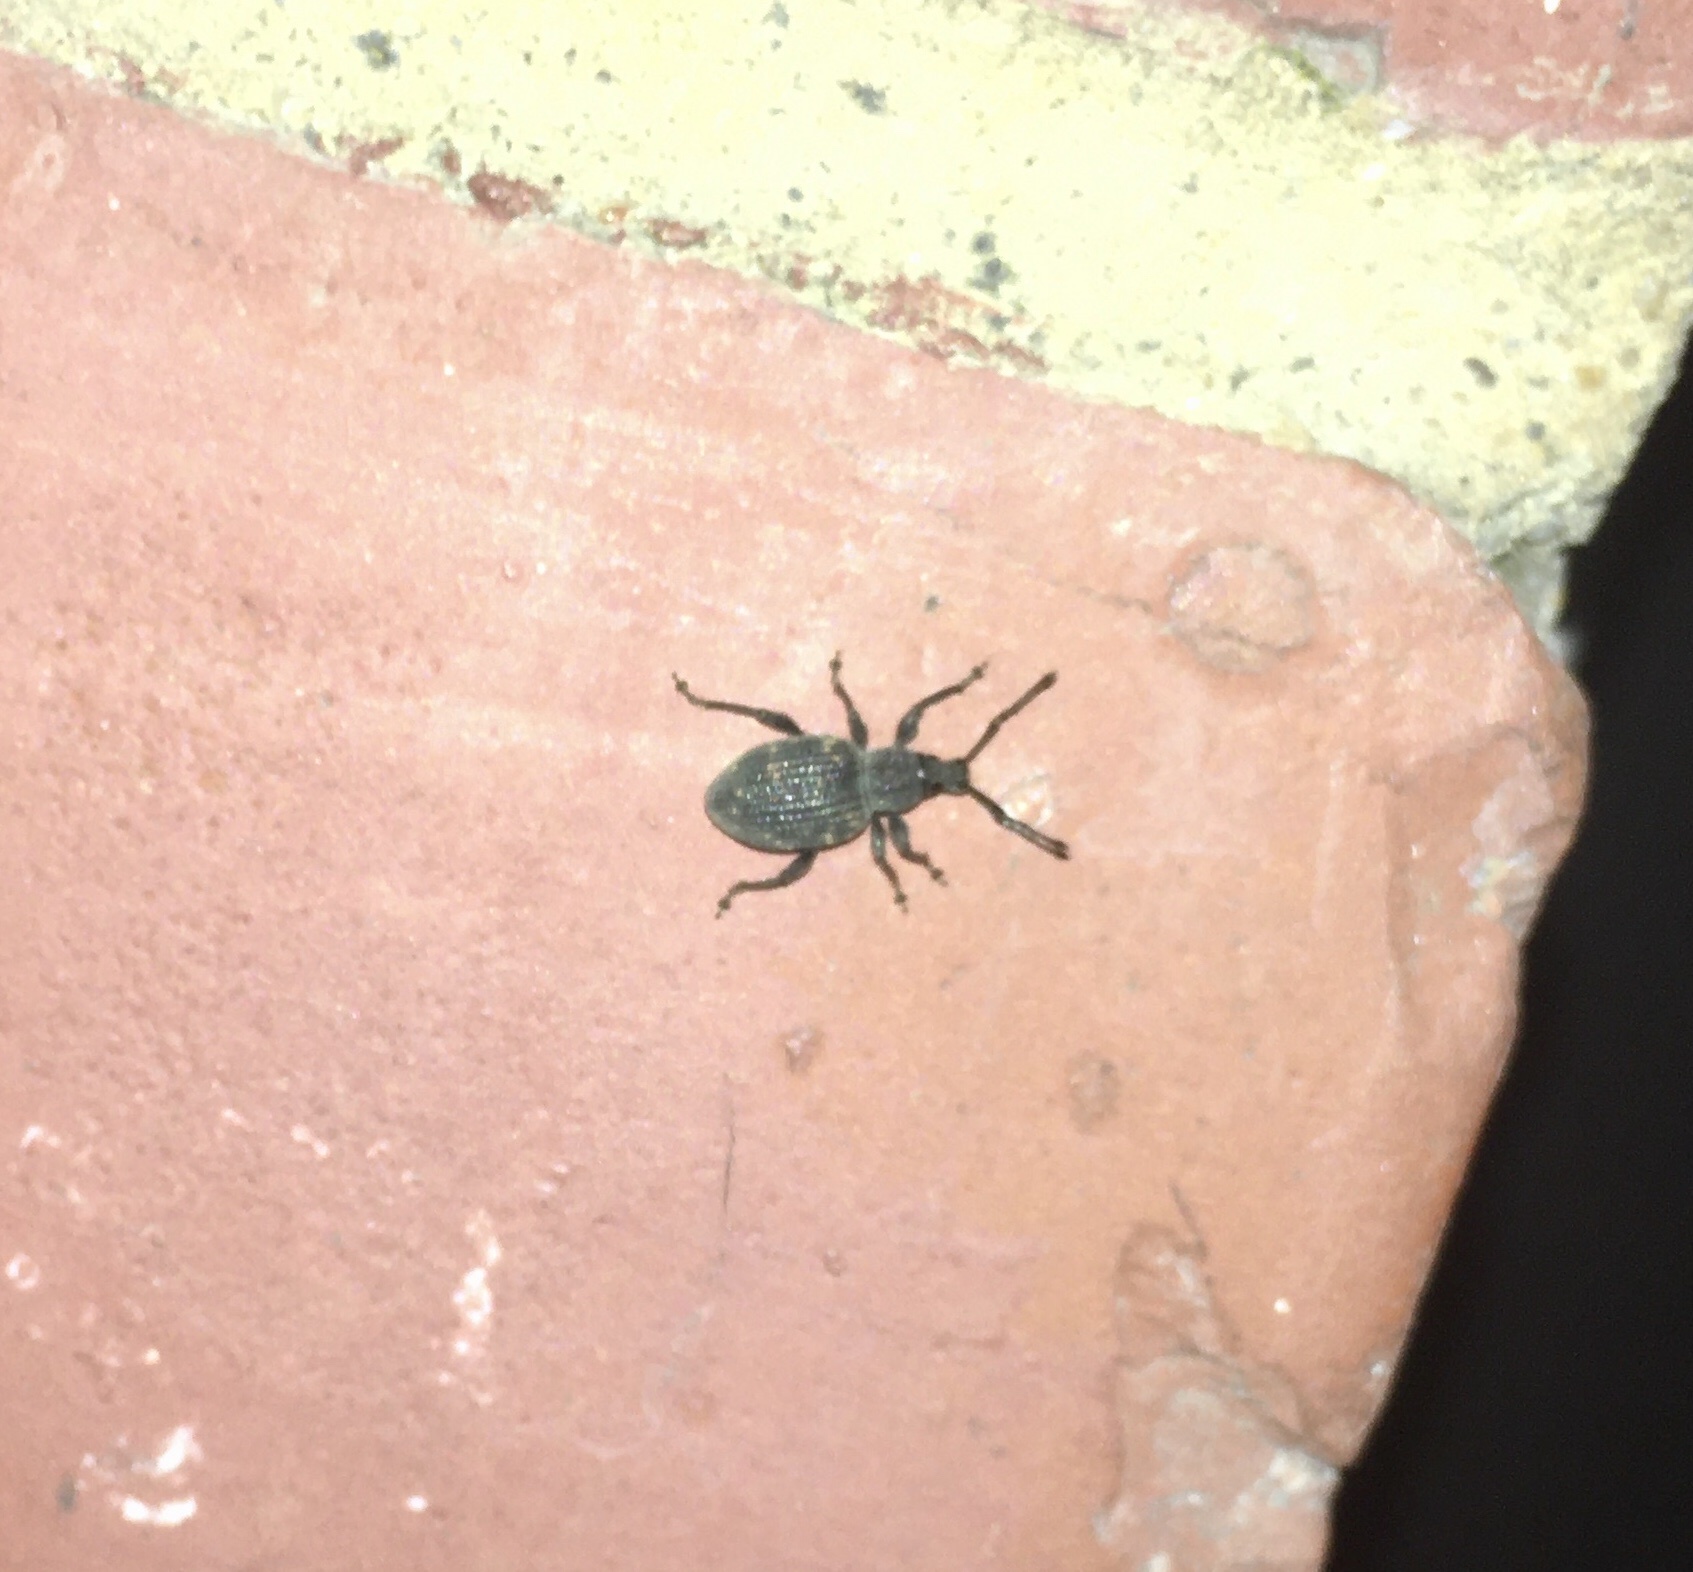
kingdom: Animalia
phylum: Arthropoda
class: Insecta
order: Coleoptera
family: Curculionidae
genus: Otiorhynchus
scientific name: Otiorhynchus sulcatus
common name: Black vine weevil
